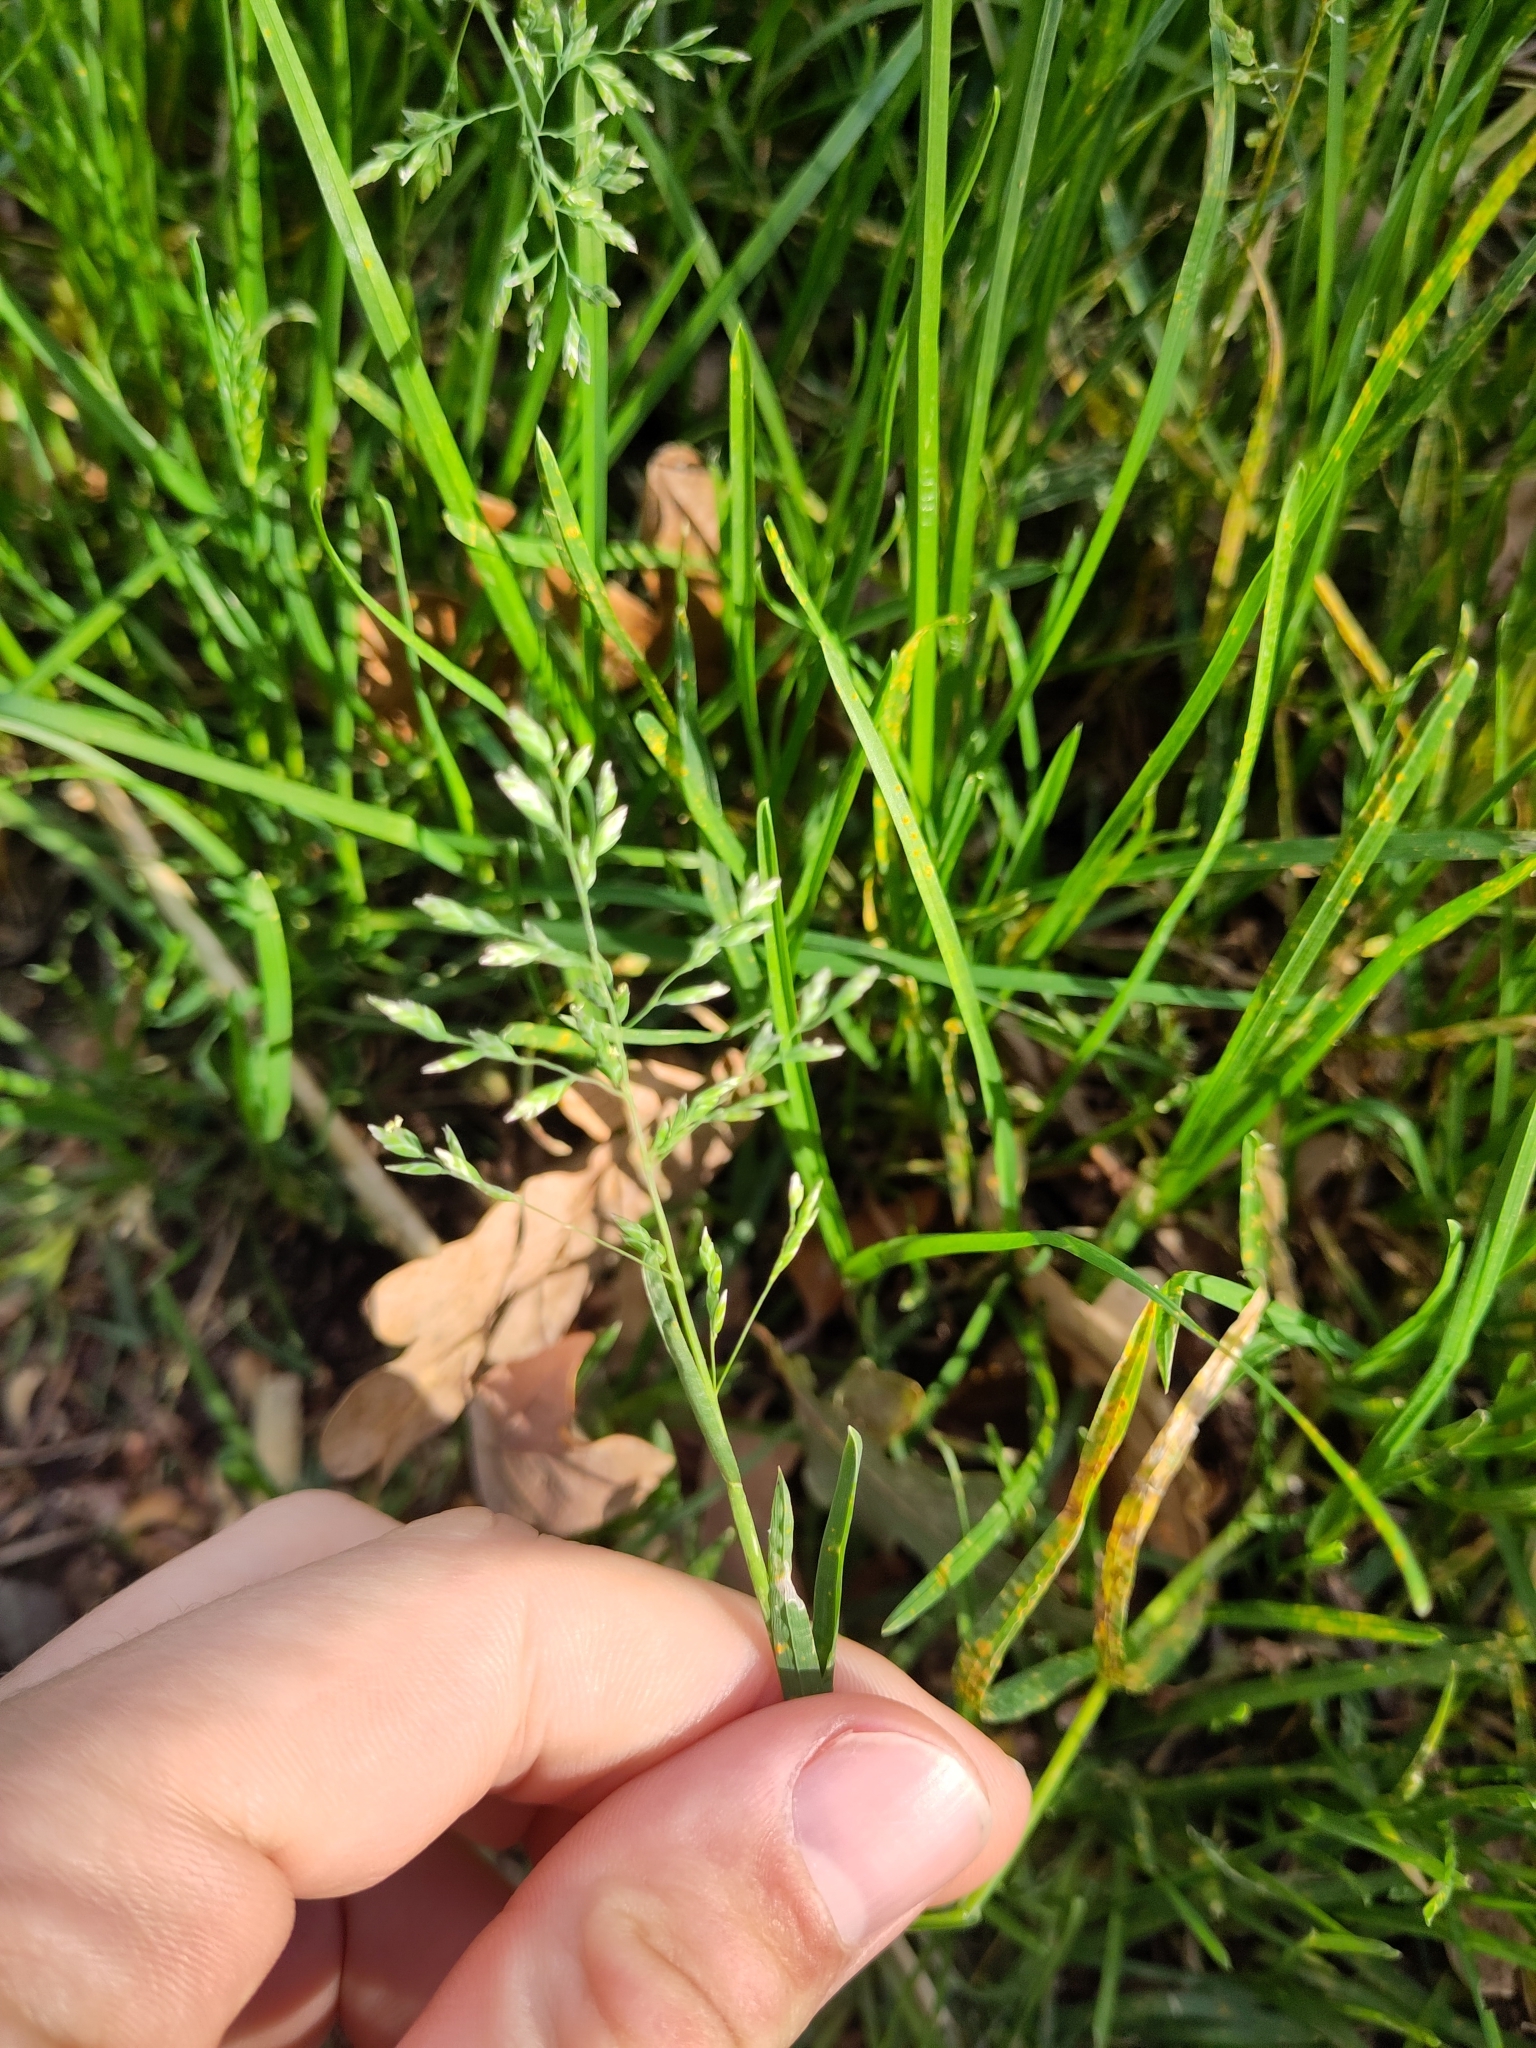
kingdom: Plantae
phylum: Tracheophyta
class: Liliopsida
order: Poales
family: Poaceae
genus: Poa
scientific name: Poa annua
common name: Annual bluegrass
